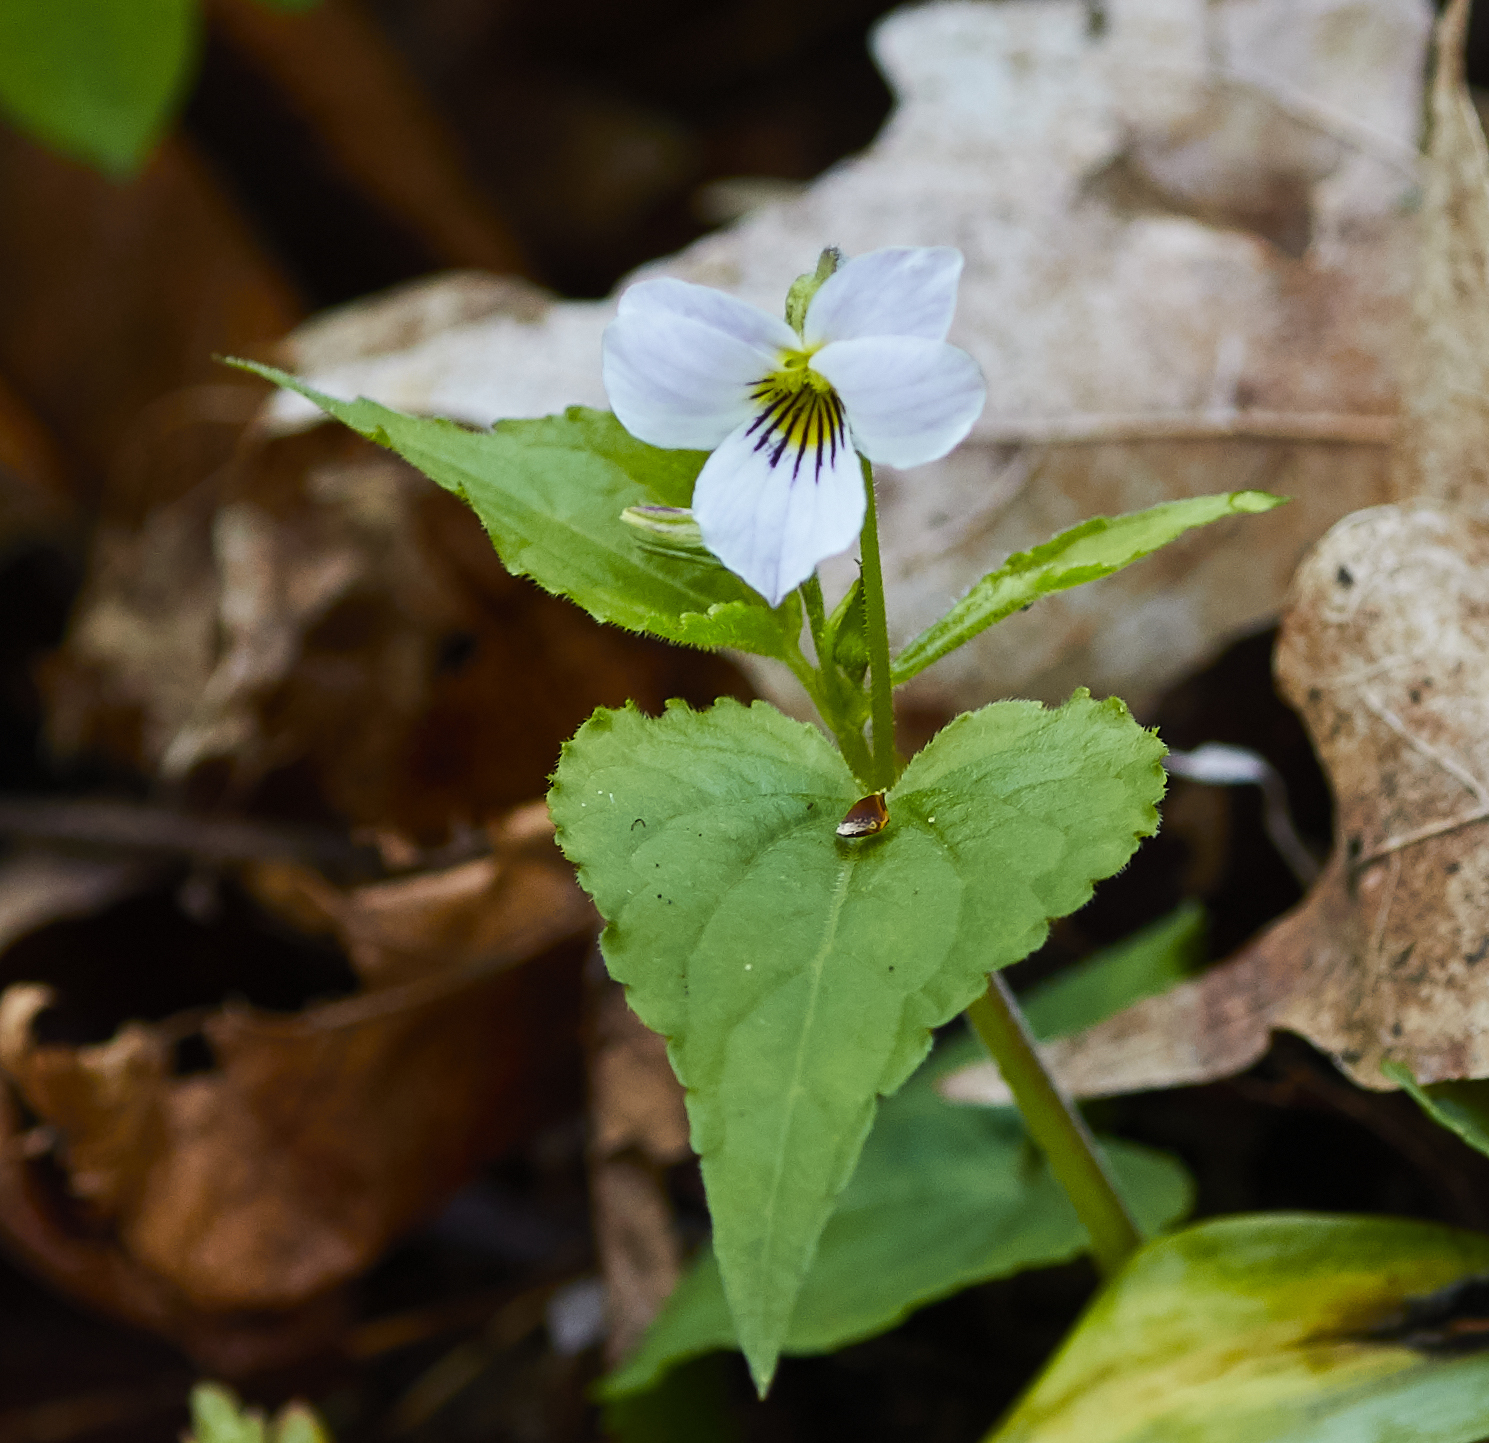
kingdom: Plantae
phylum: Tracheophyta
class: Magnoliopsida
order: Malpighiales
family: Violaceae
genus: Viola
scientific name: Viola canadensis
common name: Canada violet
